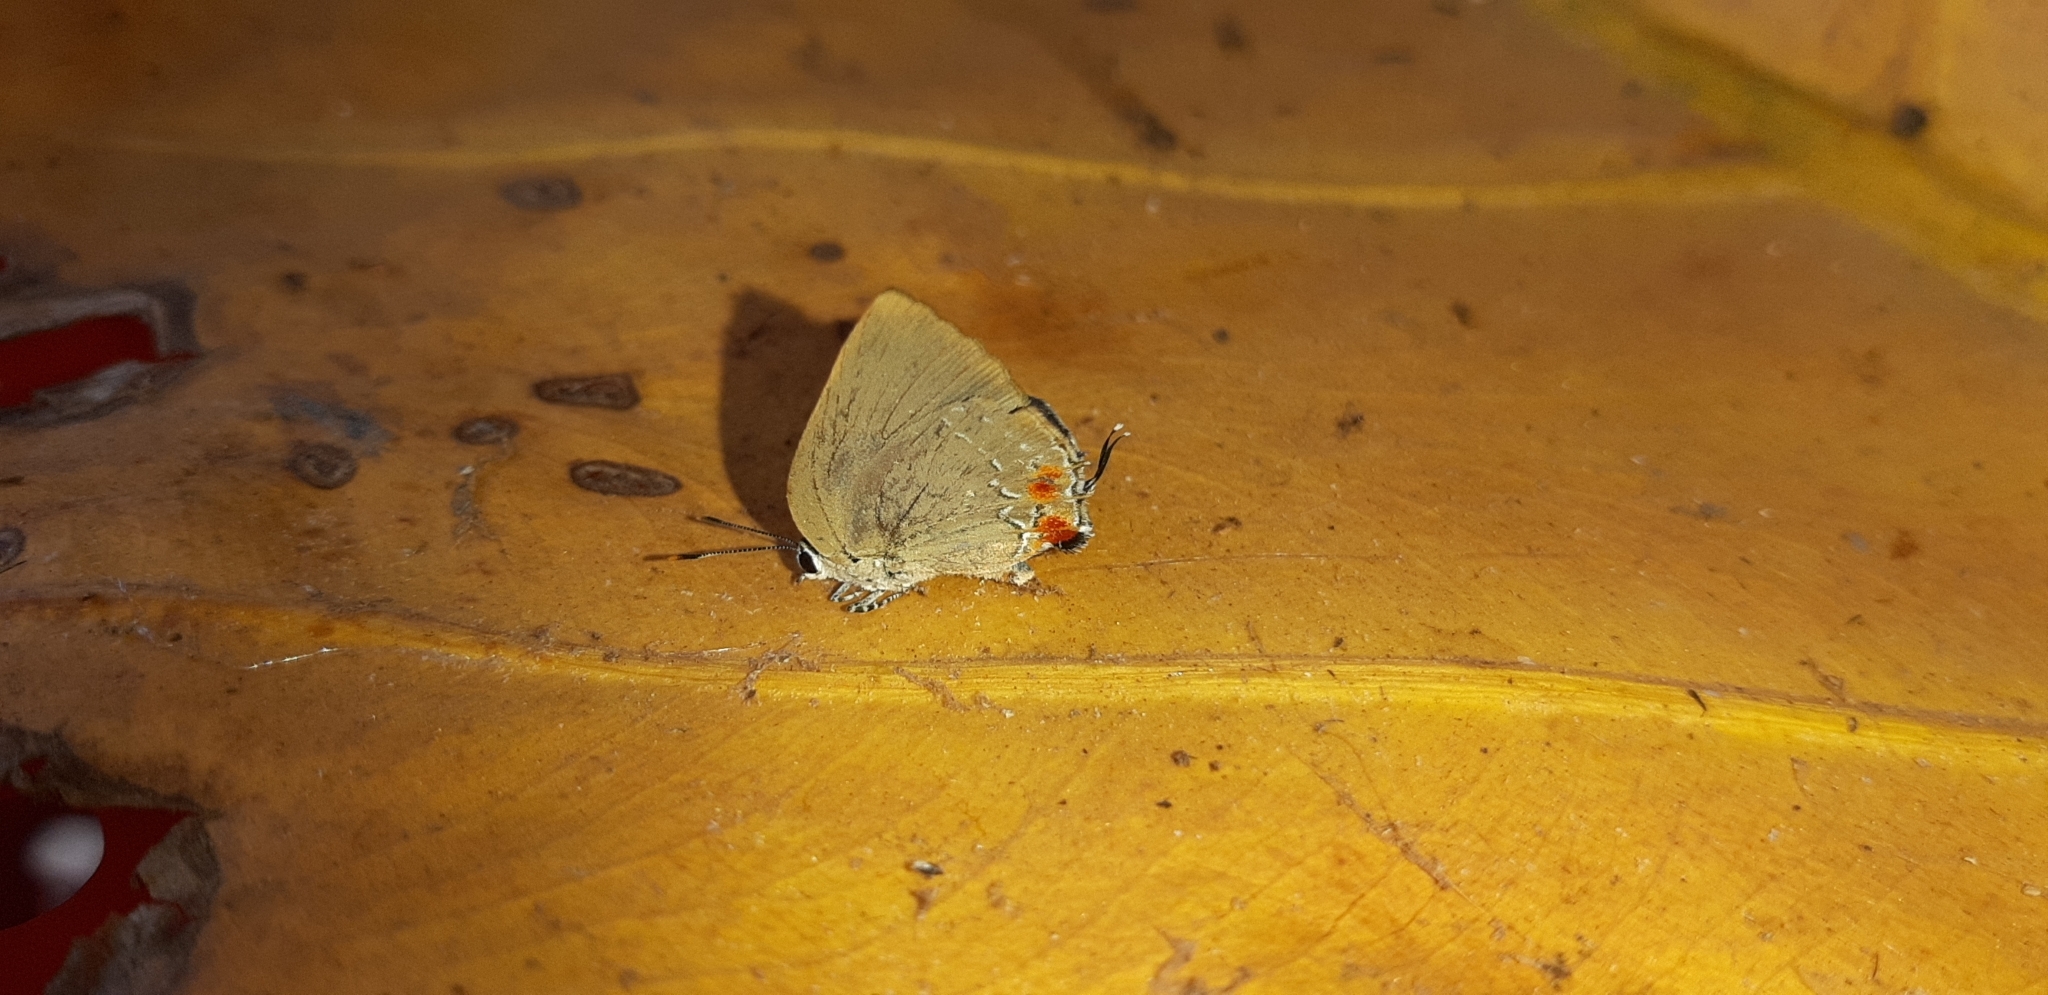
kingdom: Animalia
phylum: Arthropoda
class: Insecta
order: Lepidoptera
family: Lycaenidae
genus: Thecla
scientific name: Thecla ergina
